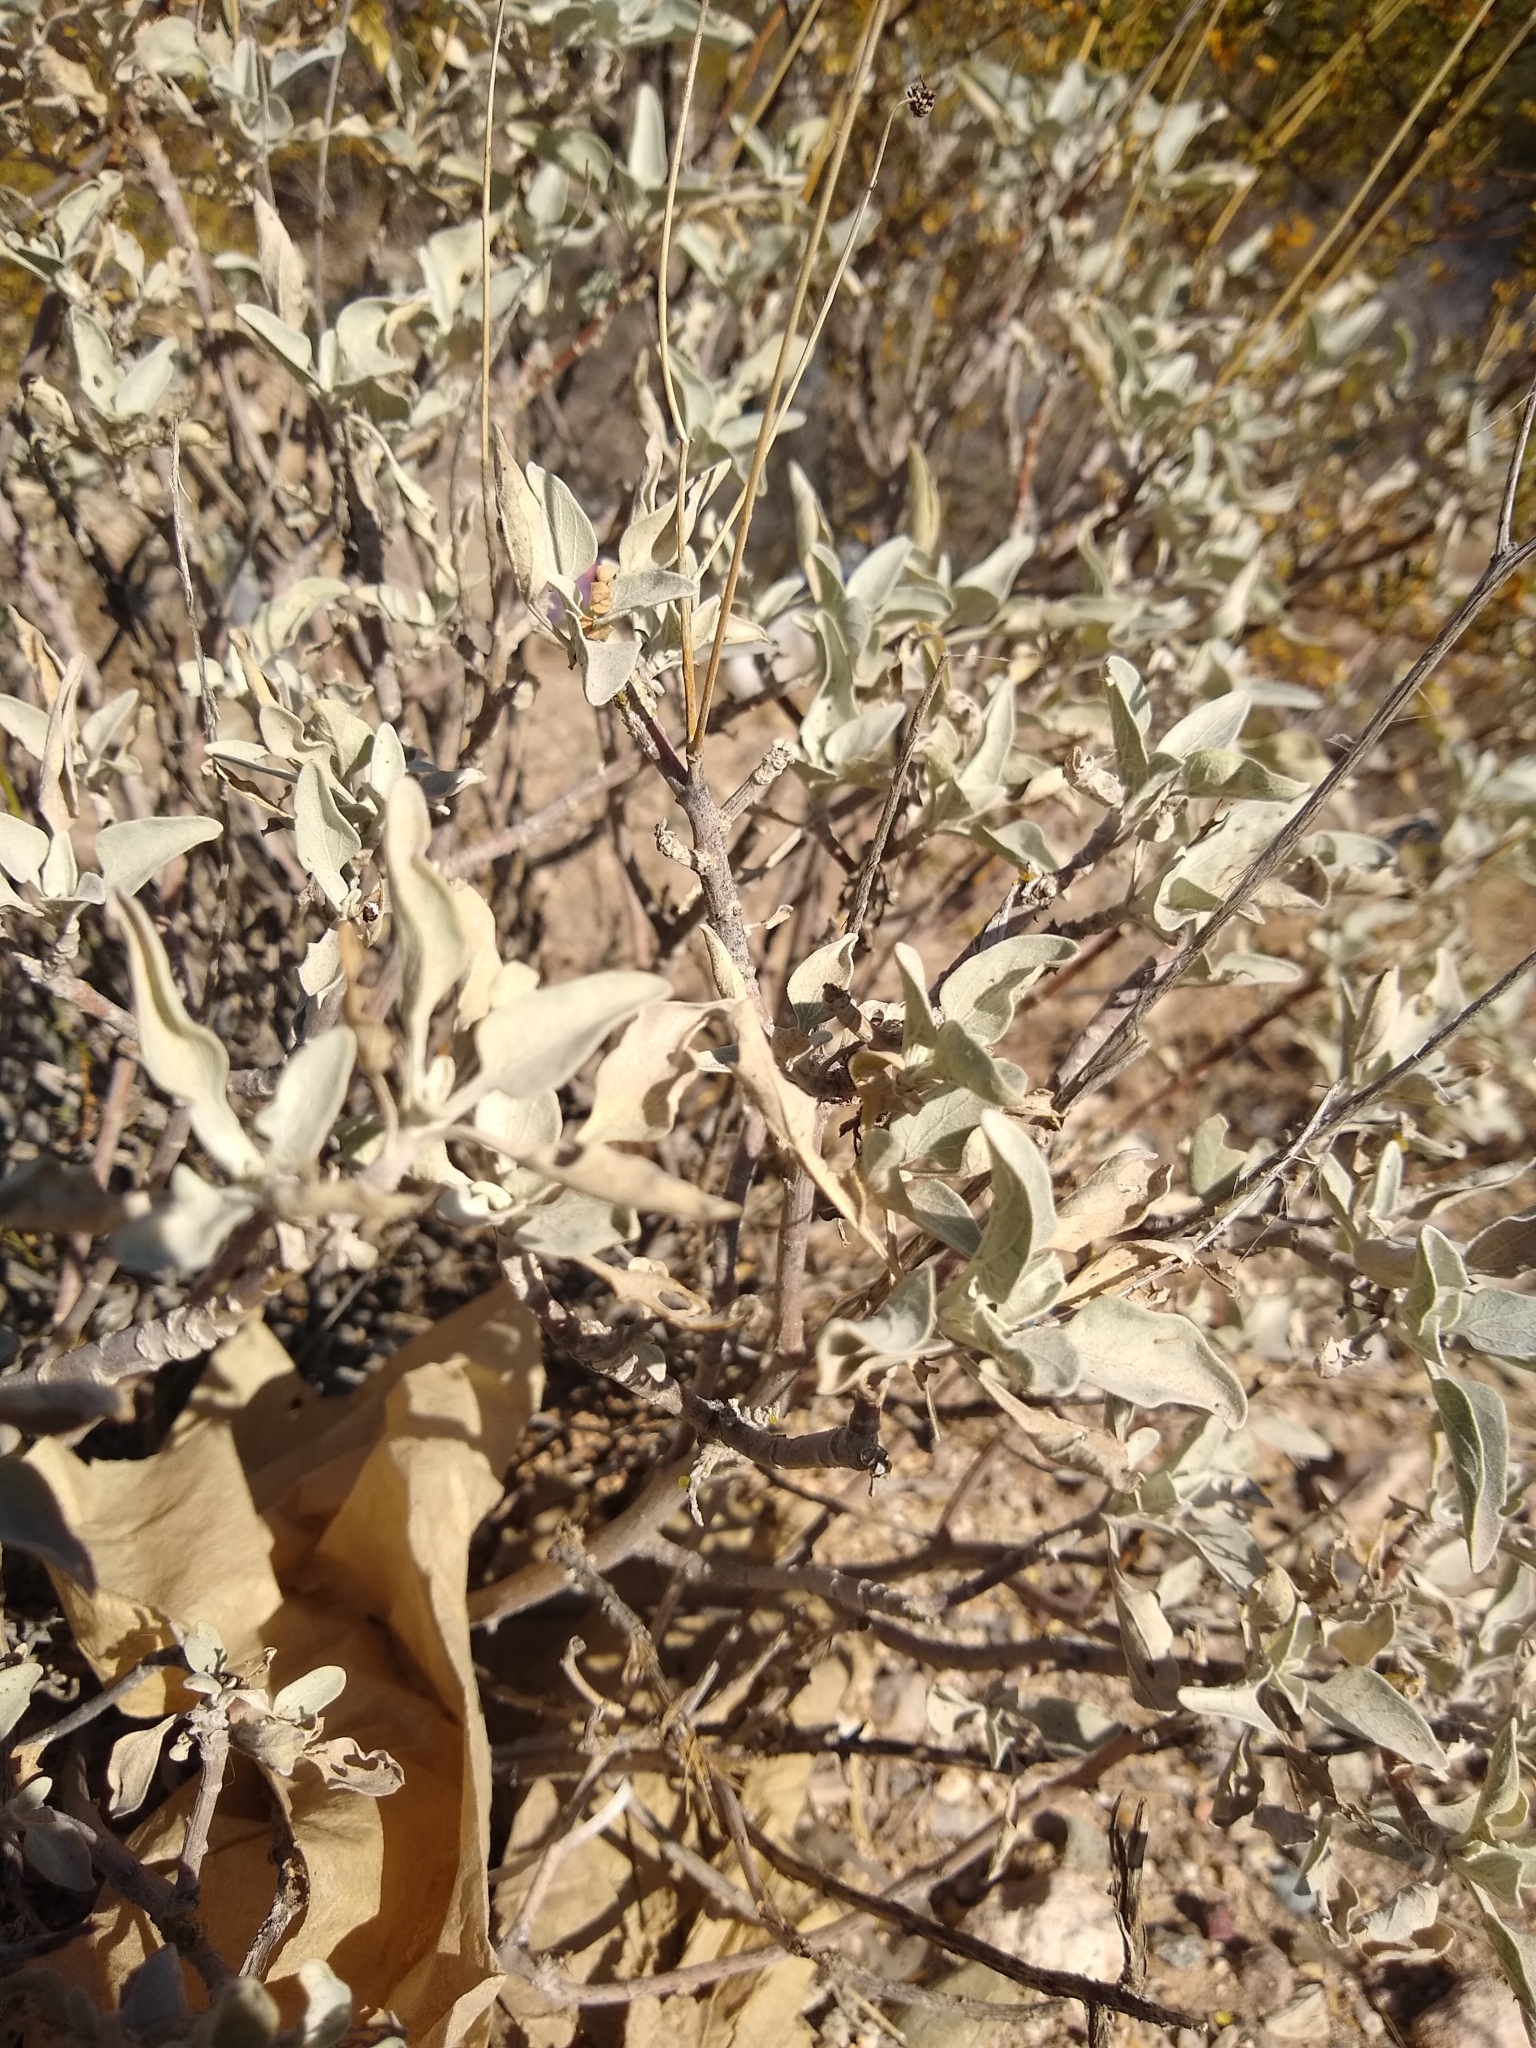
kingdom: Plantae
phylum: Tracheophyta
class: Magnoliopsida
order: Asterales
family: Asteraceae
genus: Encelia
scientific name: Encelia farinosa
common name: Brittlebush
